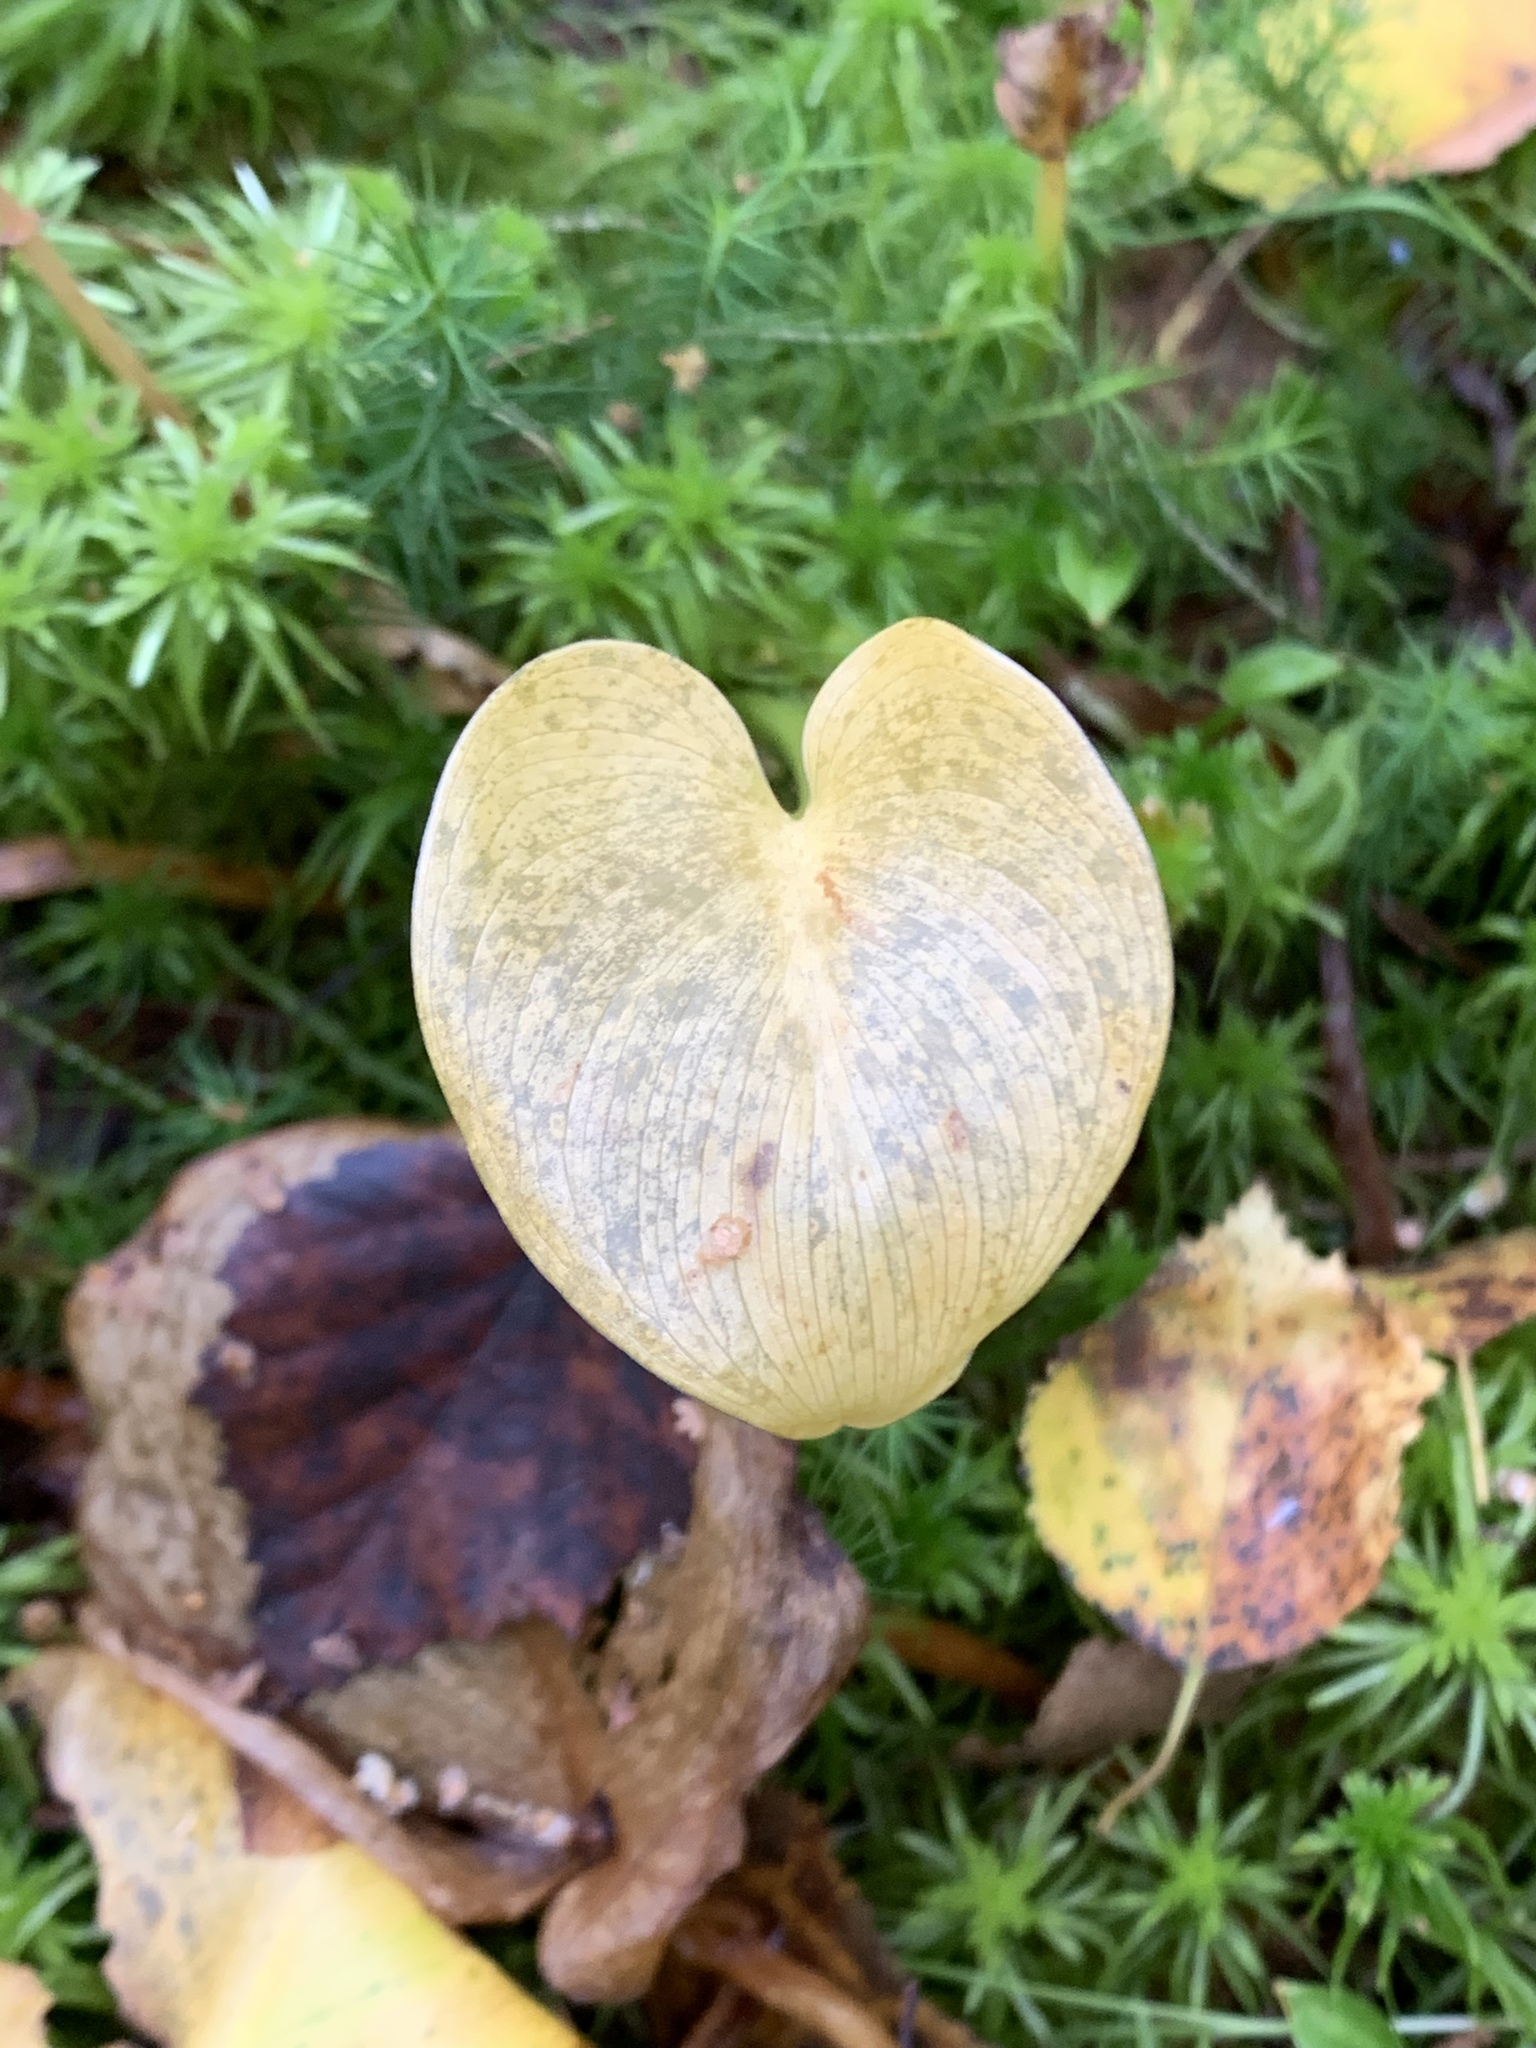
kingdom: Plantae
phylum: Tracheophyta
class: Liliopsida
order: Alismatales
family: Araceae
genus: Calla
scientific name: Calla palustris
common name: Bog arum
